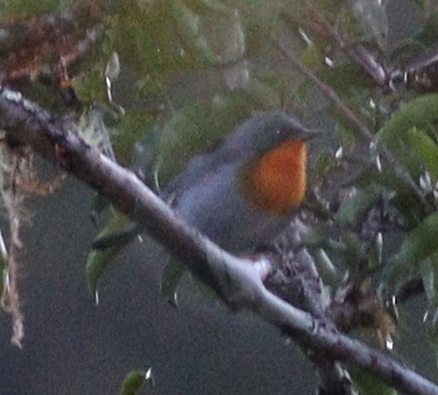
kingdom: Animalia
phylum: Chordata
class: Aves
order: Passeriformes
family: Parulidae
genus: Oreothlypis
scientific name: Oreothlypis gutturalis
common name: Flame-throated warbler
